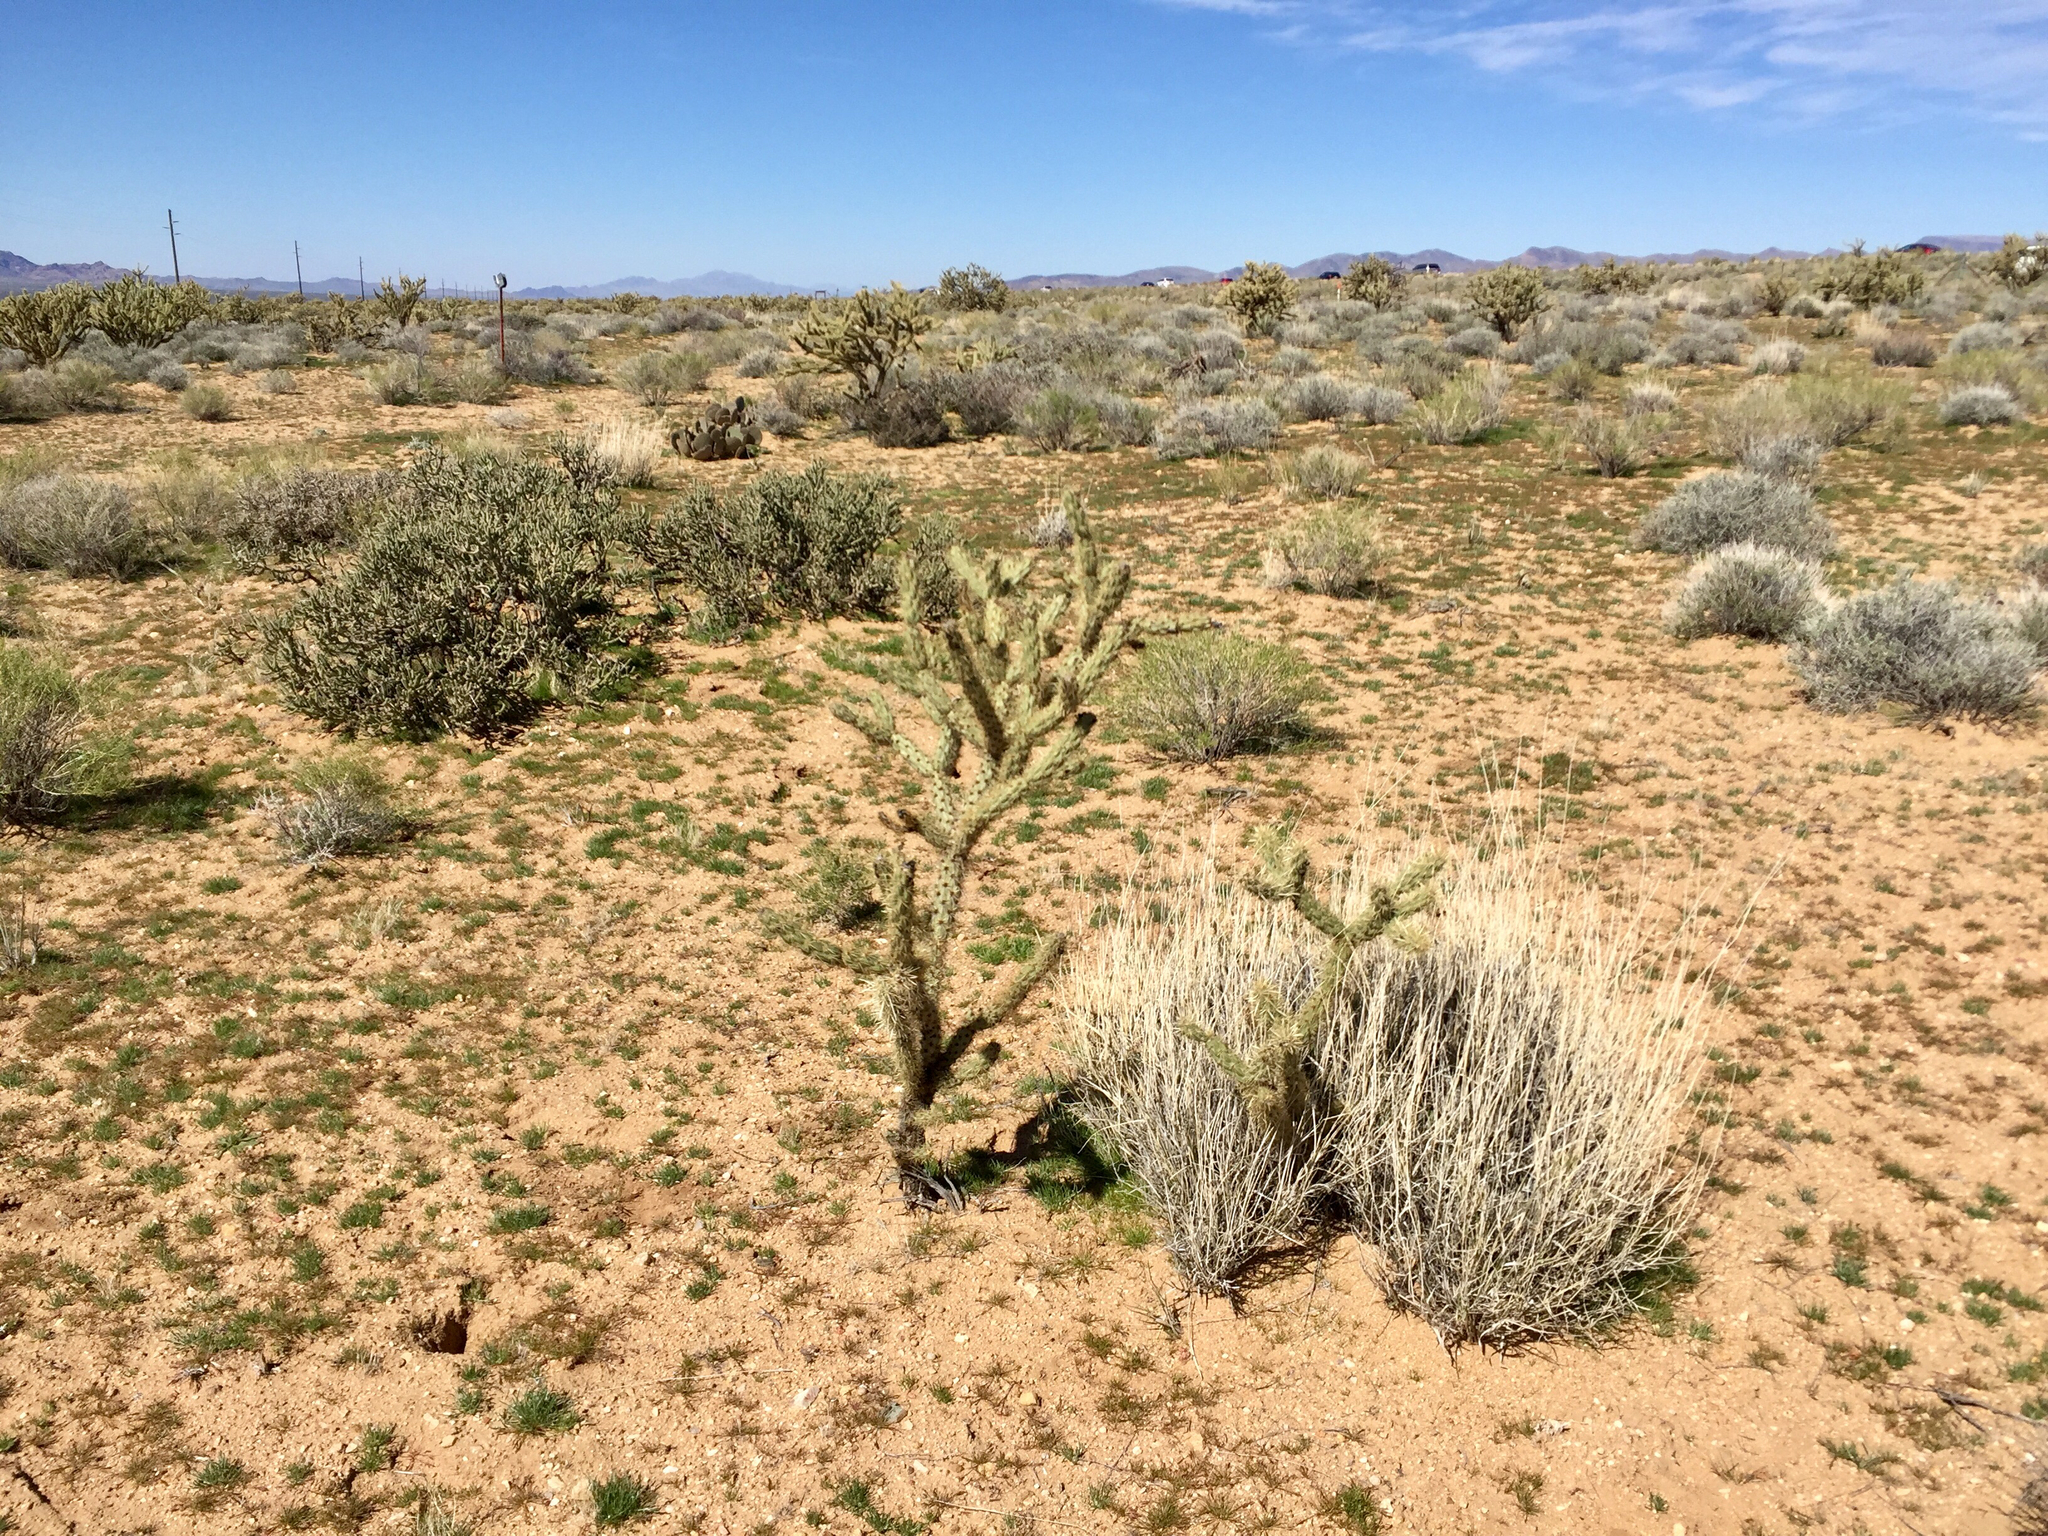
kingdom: Plantae
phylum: Tracheophyta
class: Magnoliopsida
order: Caryophyllales
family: Cactaceae
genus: Cylindropuntia
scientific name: Cylindropuntia acanthocarpa
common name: Buckhorn cholla
